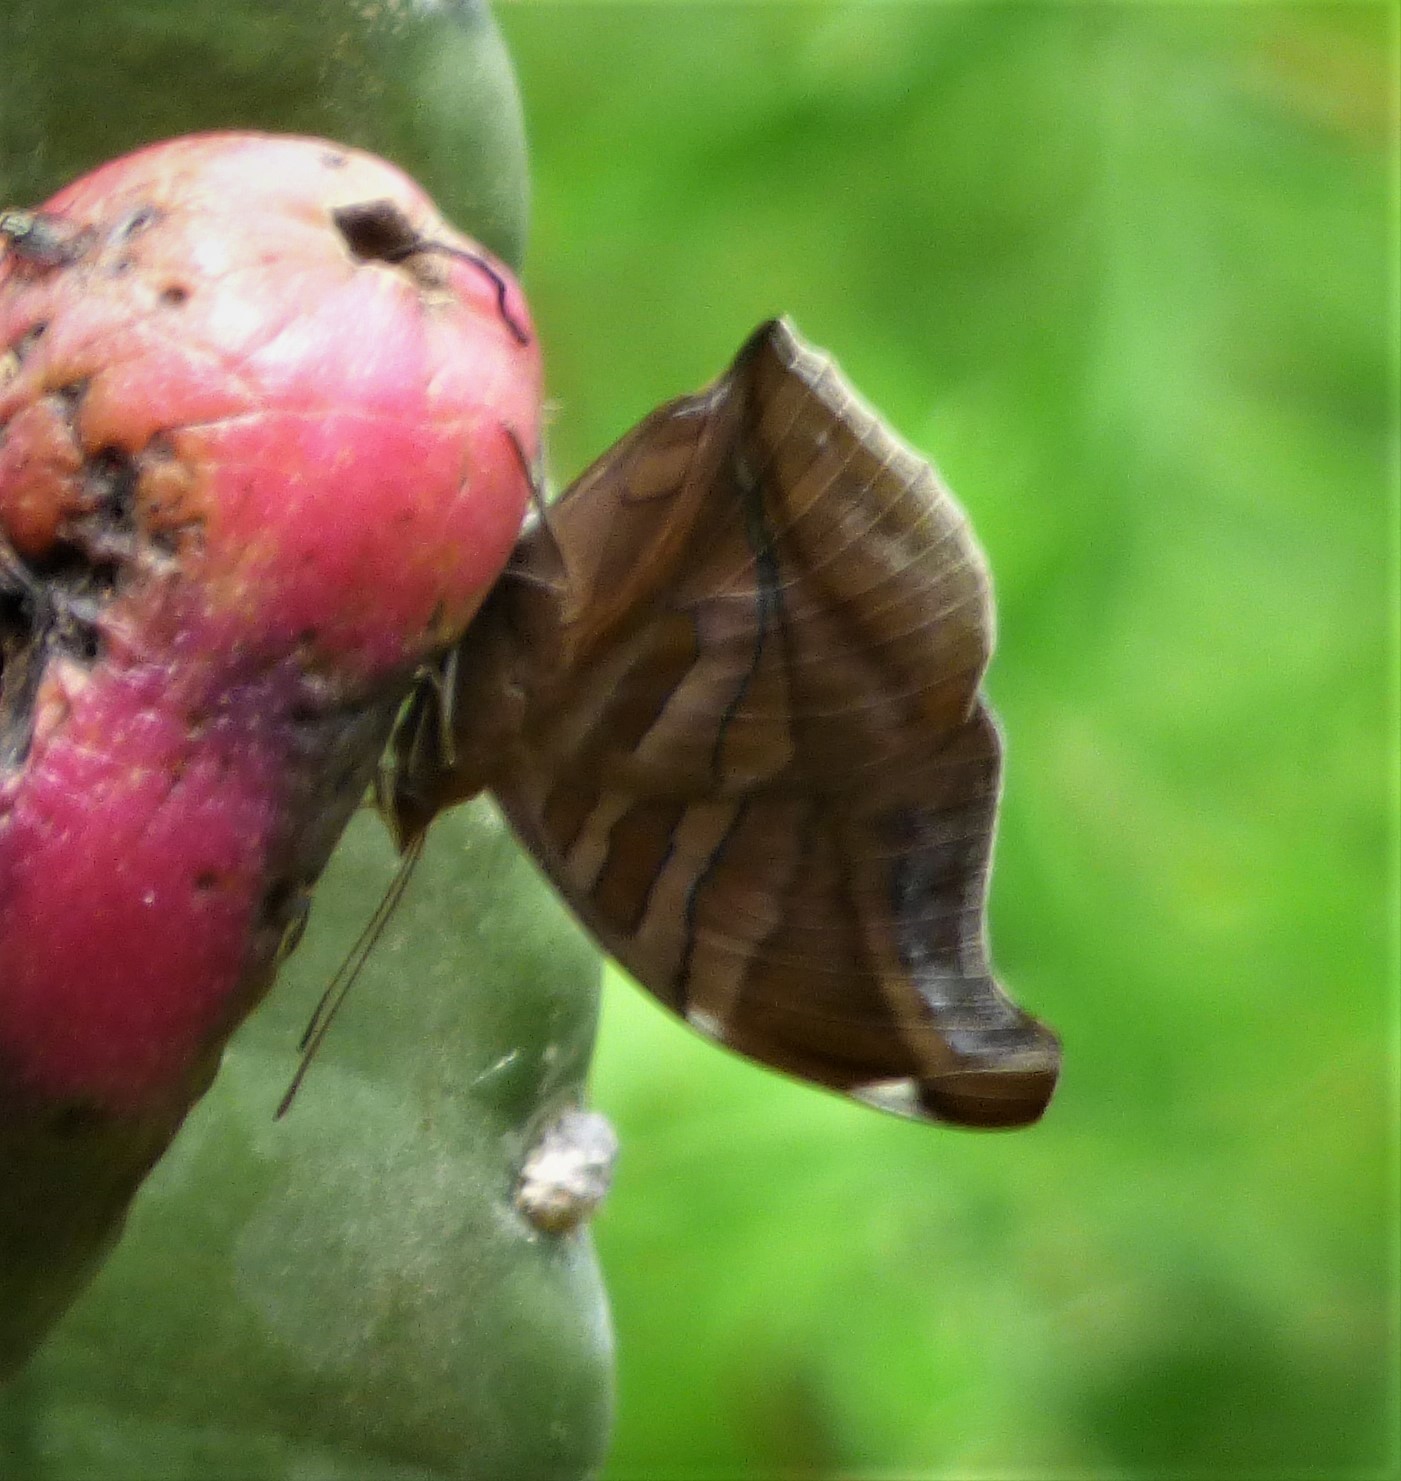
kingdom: Animalia
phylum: Arthropoda
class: Insecta
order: Lepidoptera
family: Nymphalidae
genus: Historis
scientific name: Historis odius
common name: Orion cecropian
